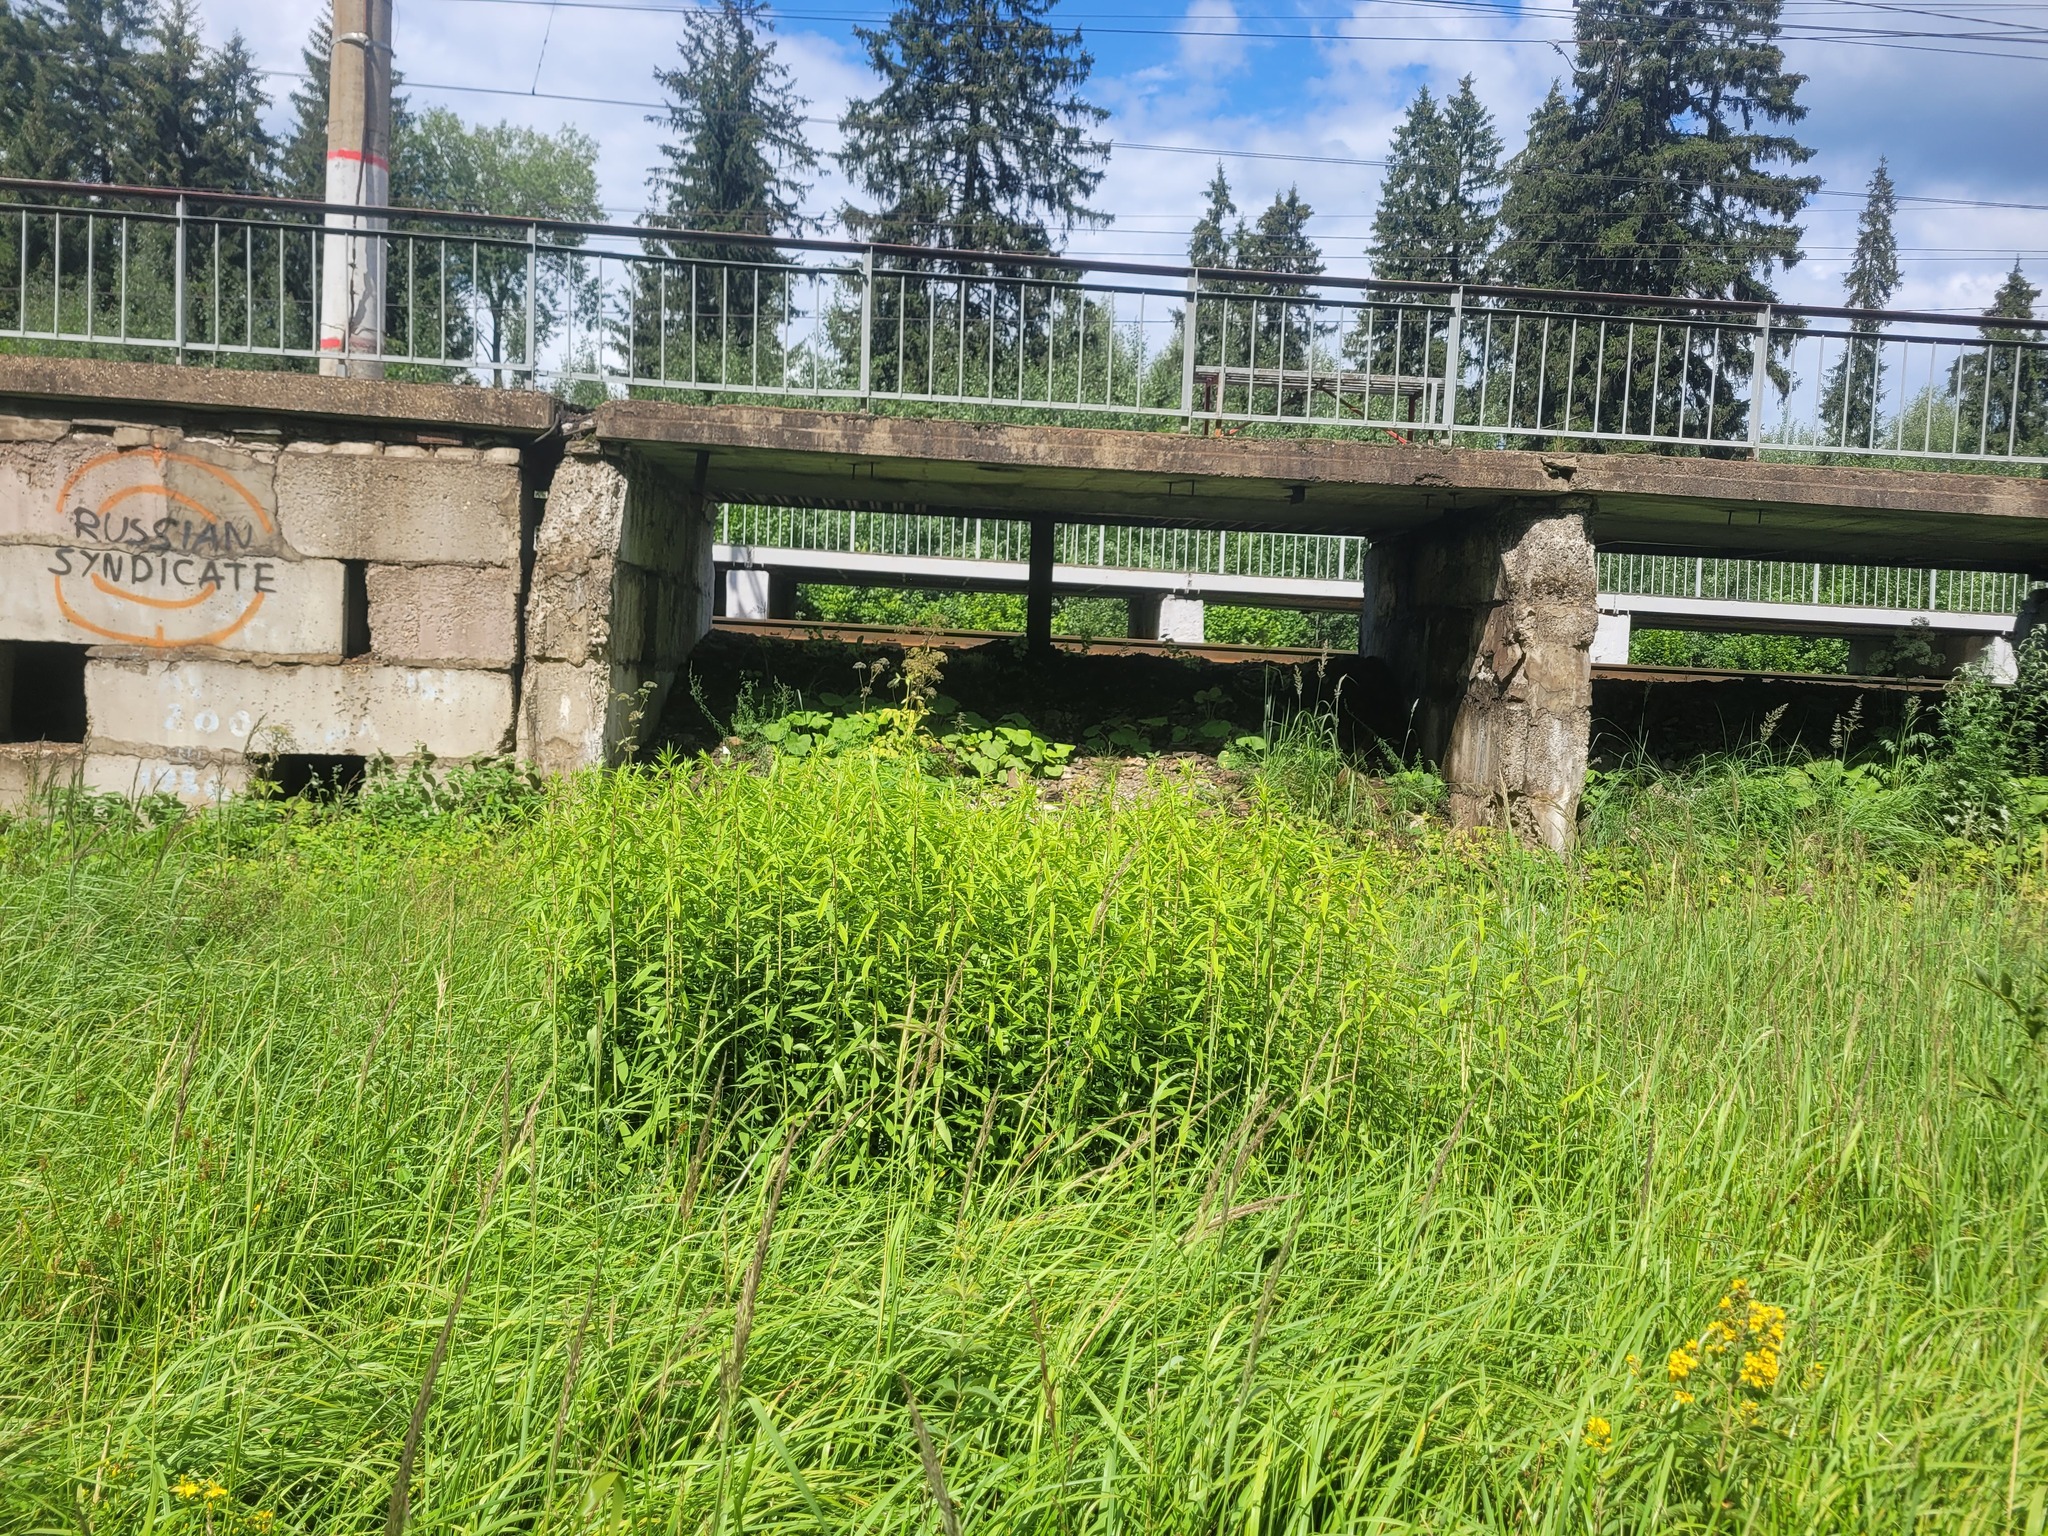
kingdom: Plantae
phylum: Tracheophyta
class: Magnoliopsida
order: Asterales
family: Asteraceae
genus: Solidago
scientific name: Solidago gigantea
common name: Giant goldenrod
